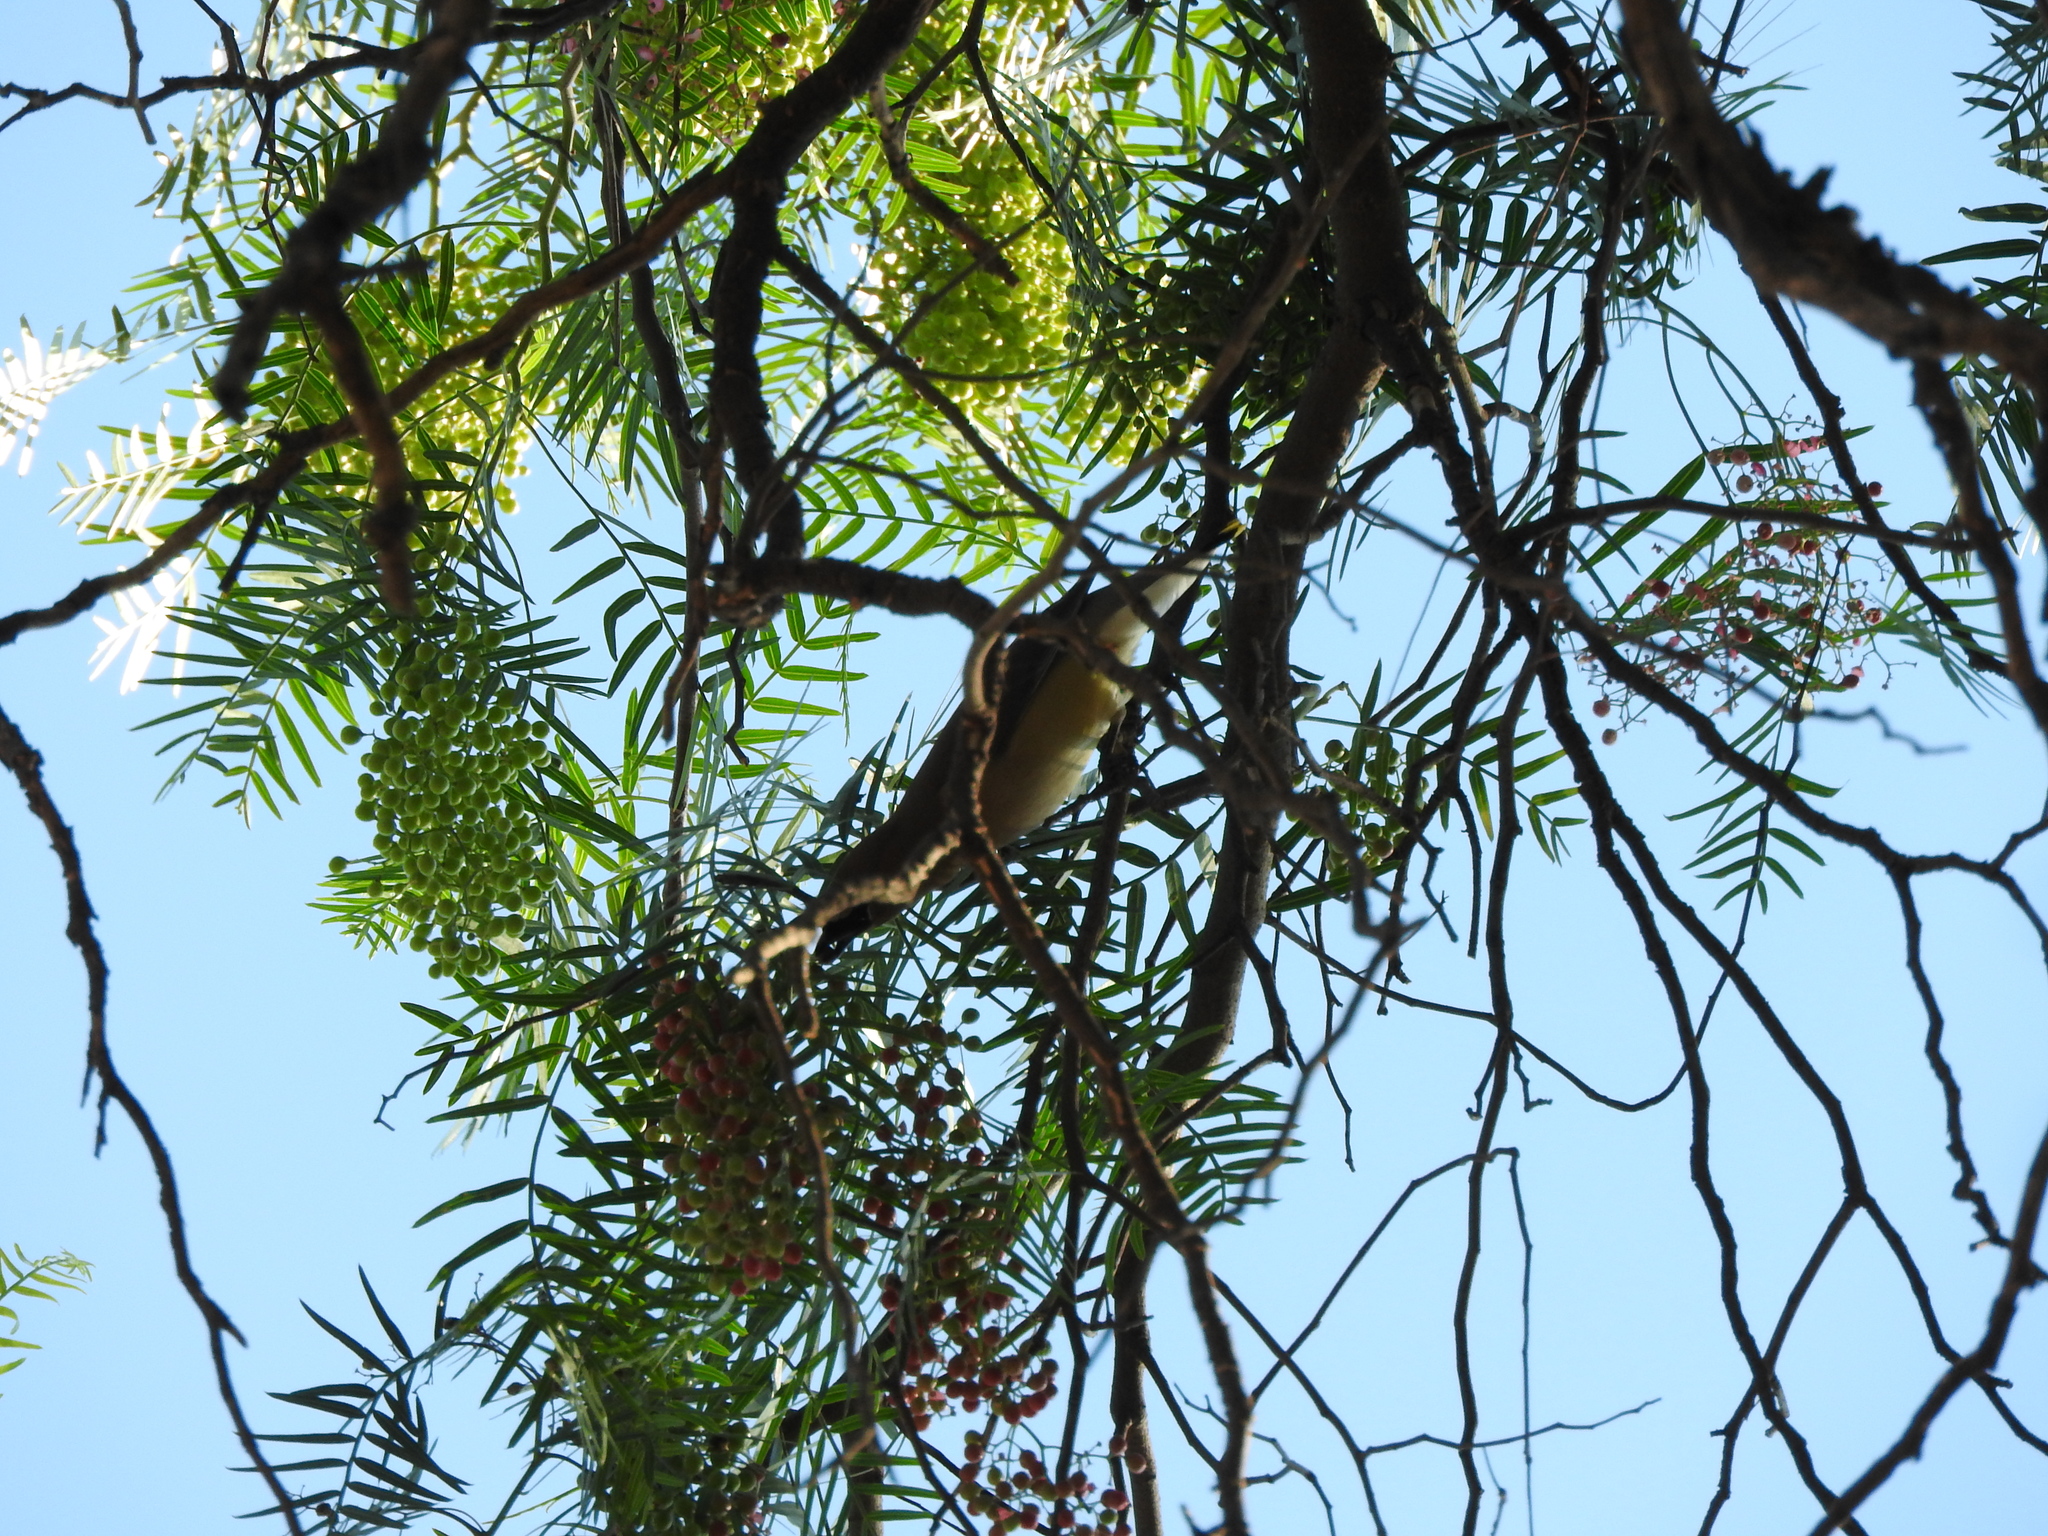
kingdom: Animalia
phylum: Chordata
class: Aves
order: Passeriformes
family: Bombycillidae
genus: Bombycilla
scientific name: Bombycilla cedrorum
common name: Cedar waxwing
